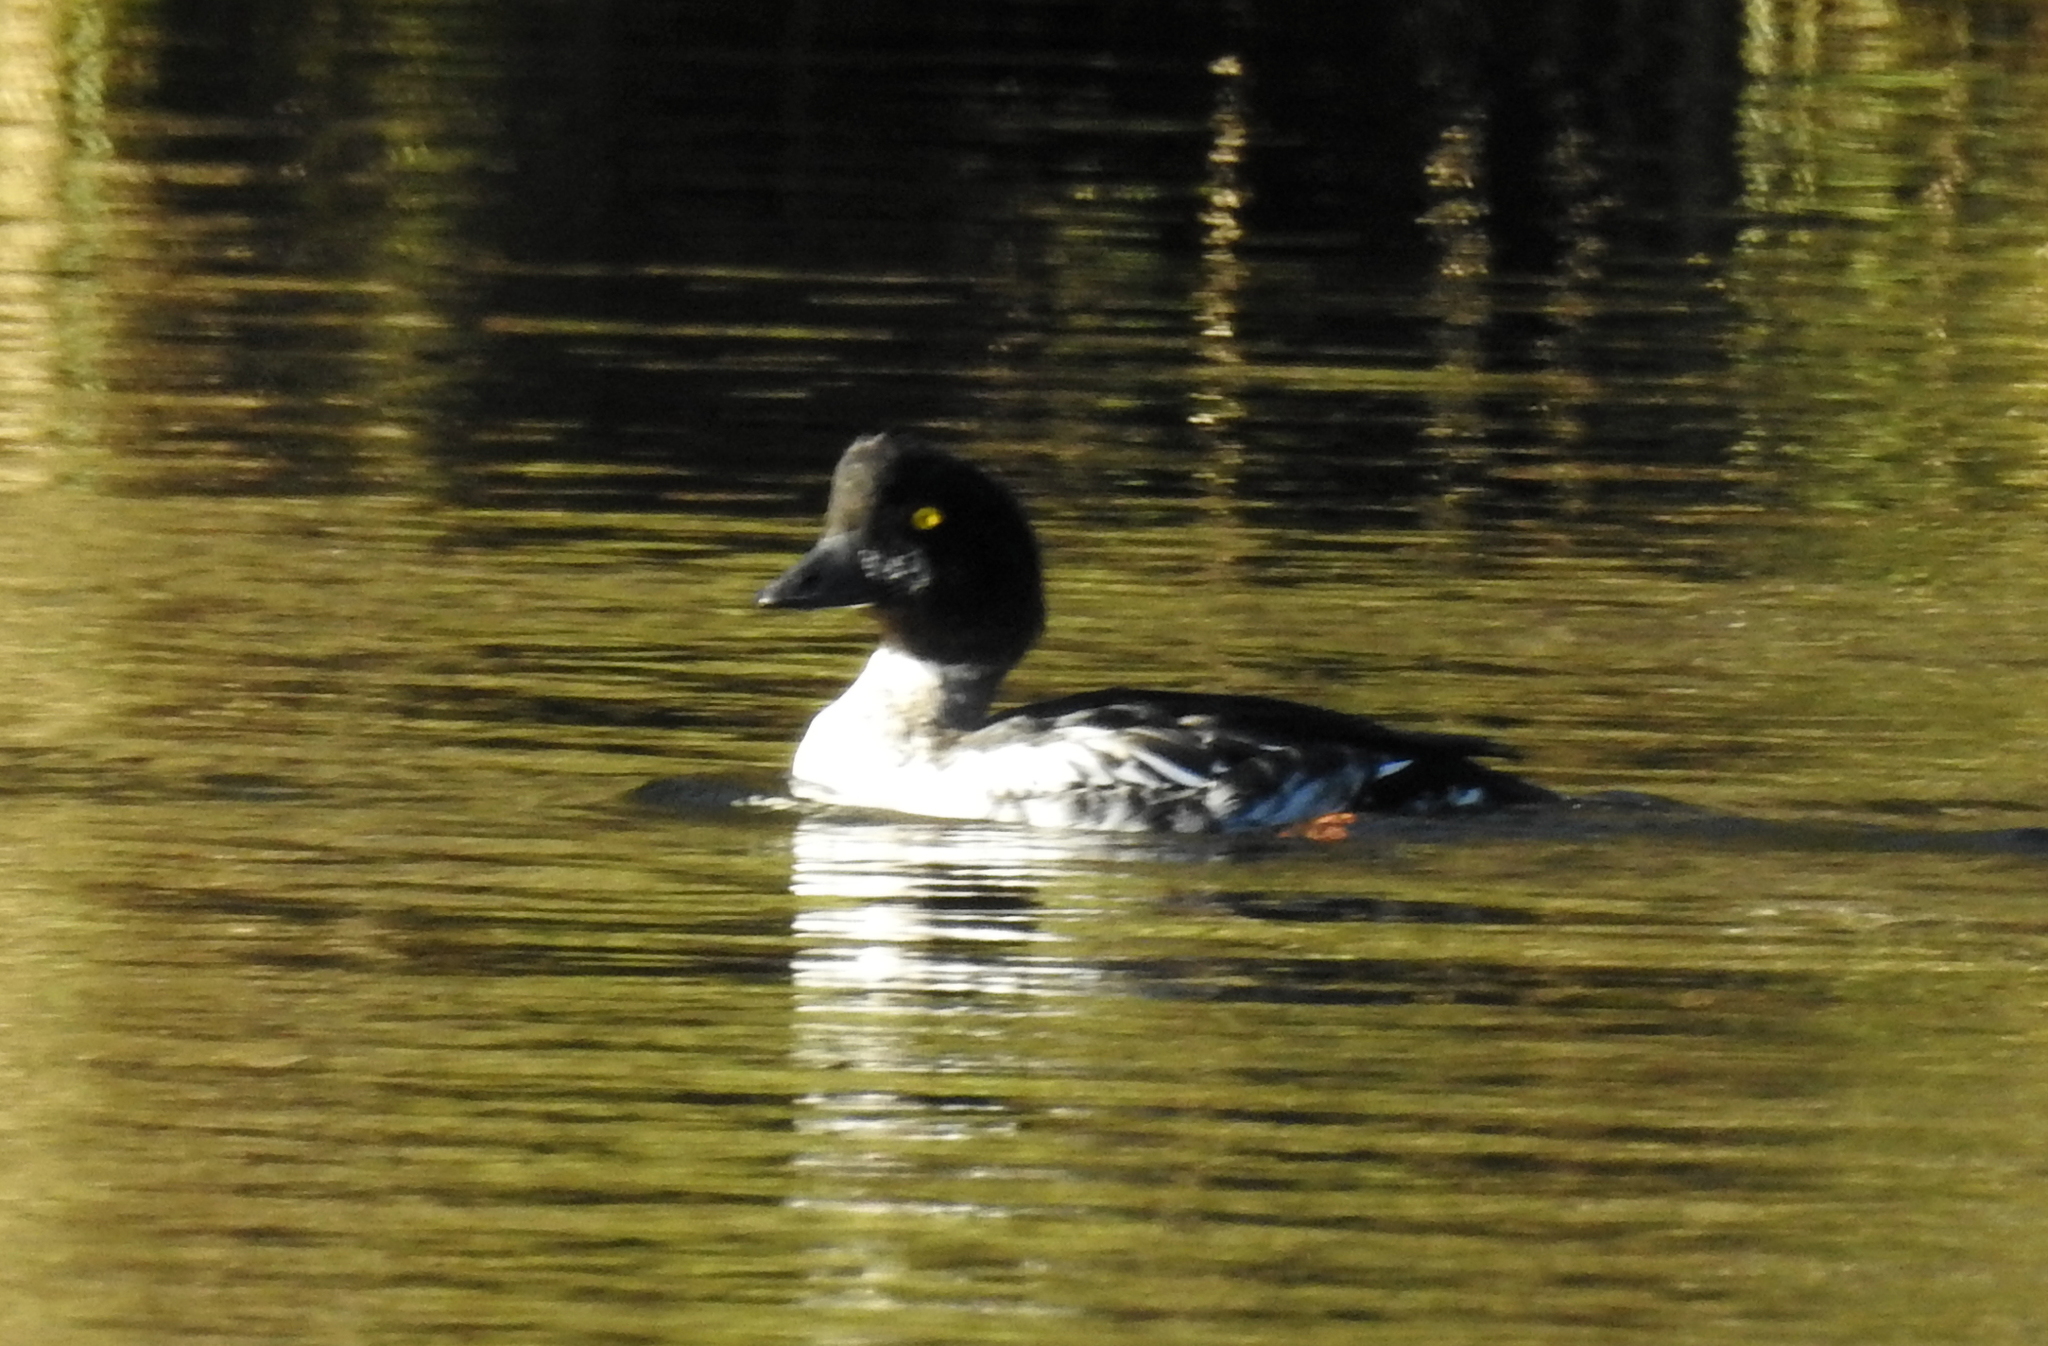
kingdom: Animalia
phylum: Chordata
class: Aves
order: Anseriformes
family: Anatidae
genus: Bucephala
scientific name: Bucephala clangula
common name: Common goldeneye
